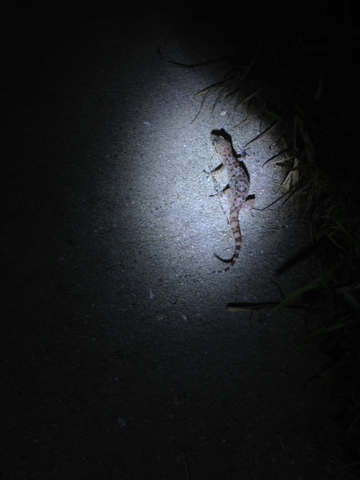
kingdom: Animalia
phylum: Chordata
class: Squamata
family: Gekkonidae
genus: Hemidactylus
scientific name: Hemidactylus turcicus
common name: Turkish gecko
